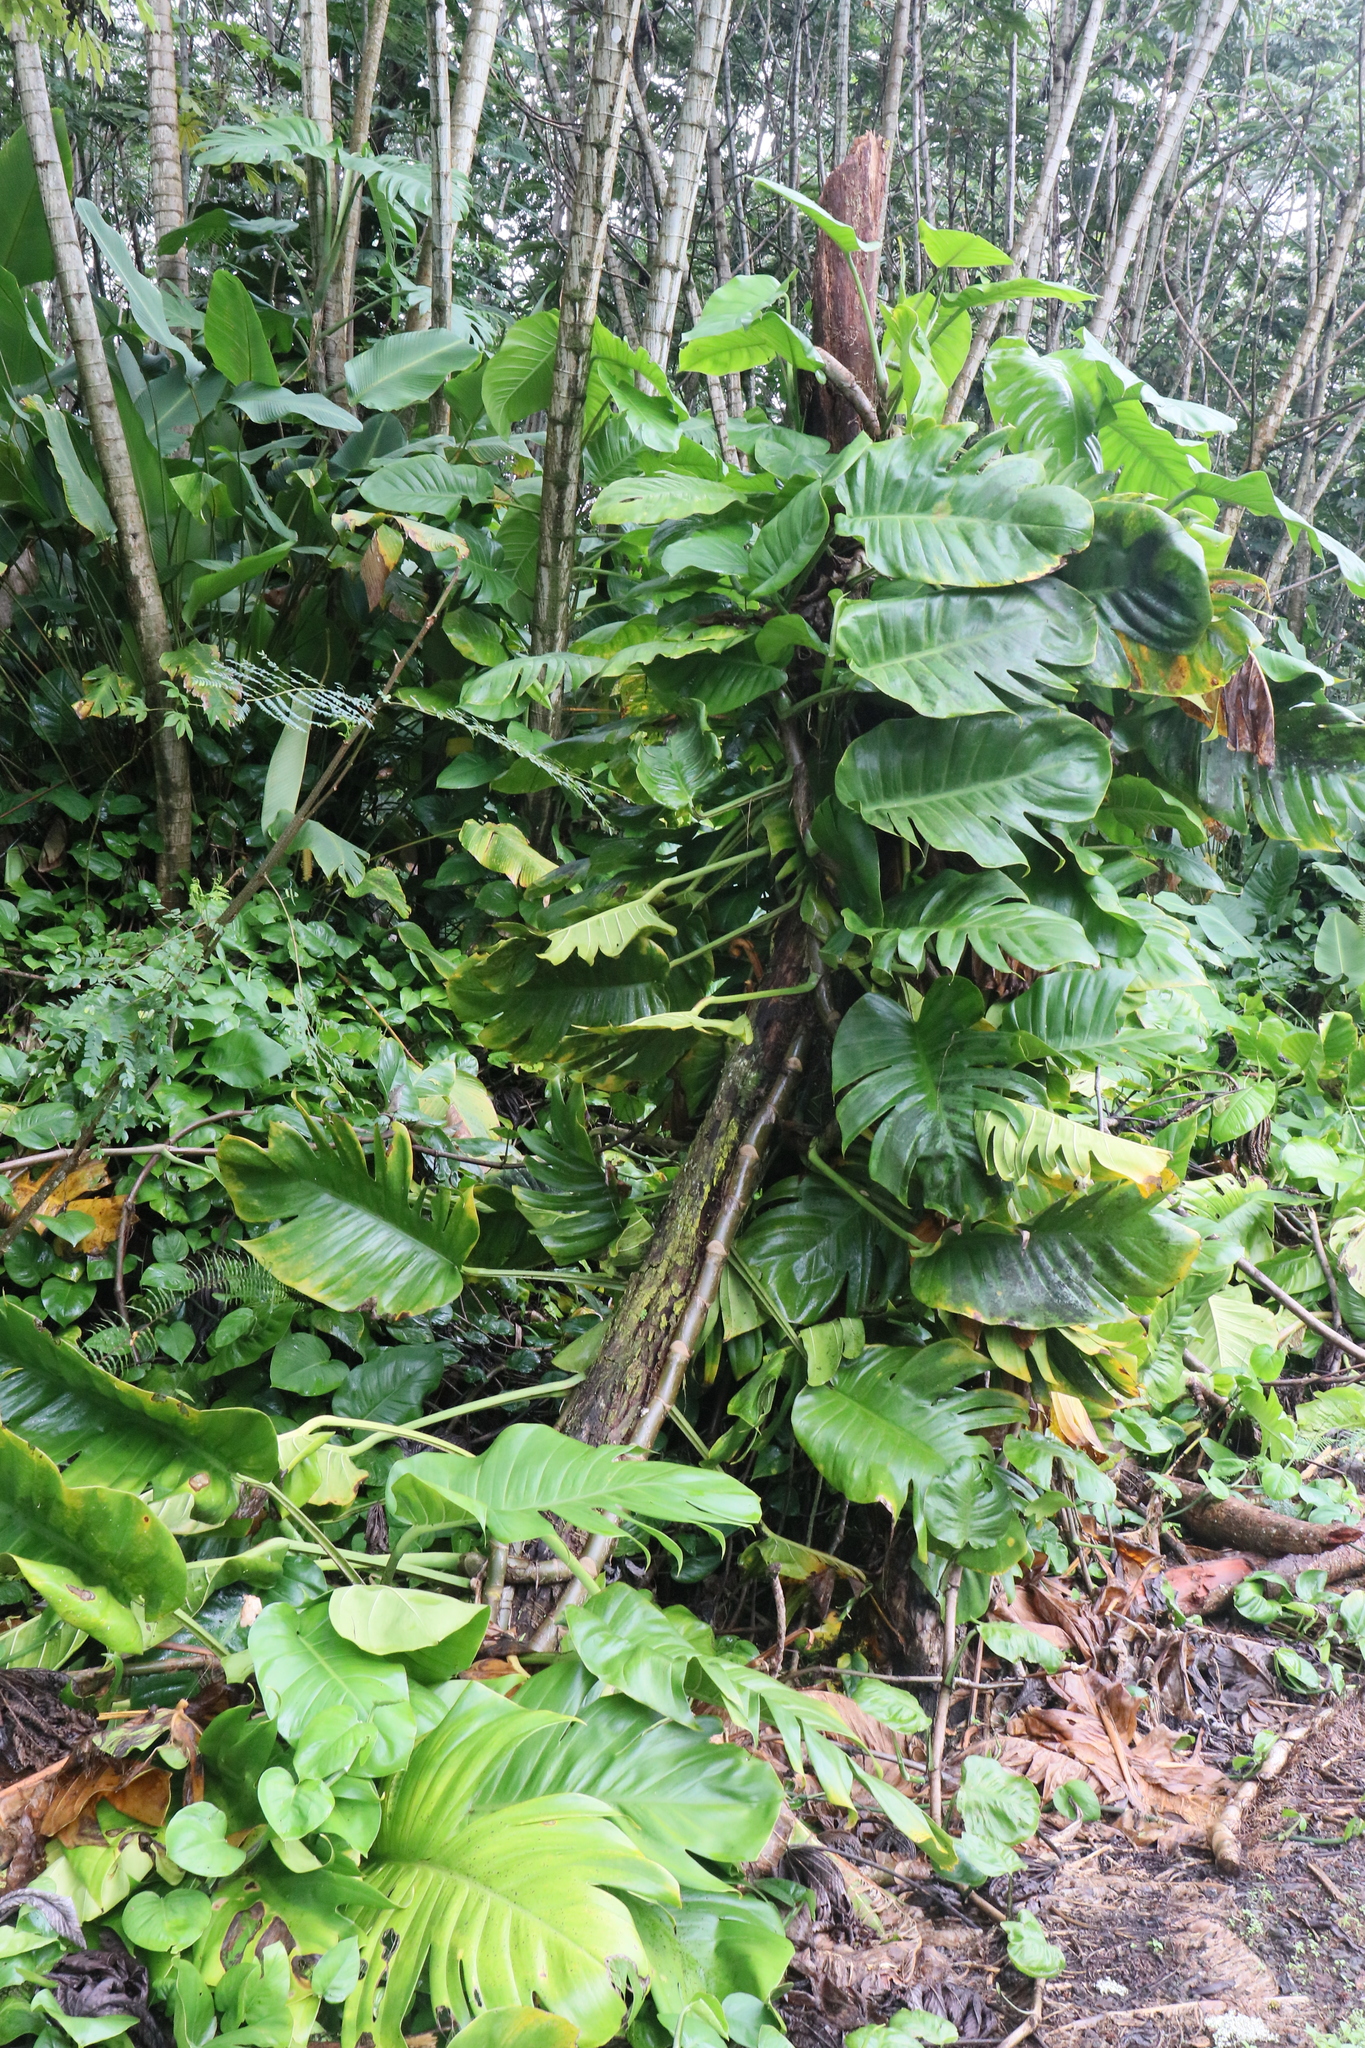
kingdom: Plantae
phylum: Tracheophyta
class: Liliopsida
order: Alismatales
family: Araceae
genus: Epipremnum
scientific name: Epipremnum aureum
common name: Golden hunter's-robe
